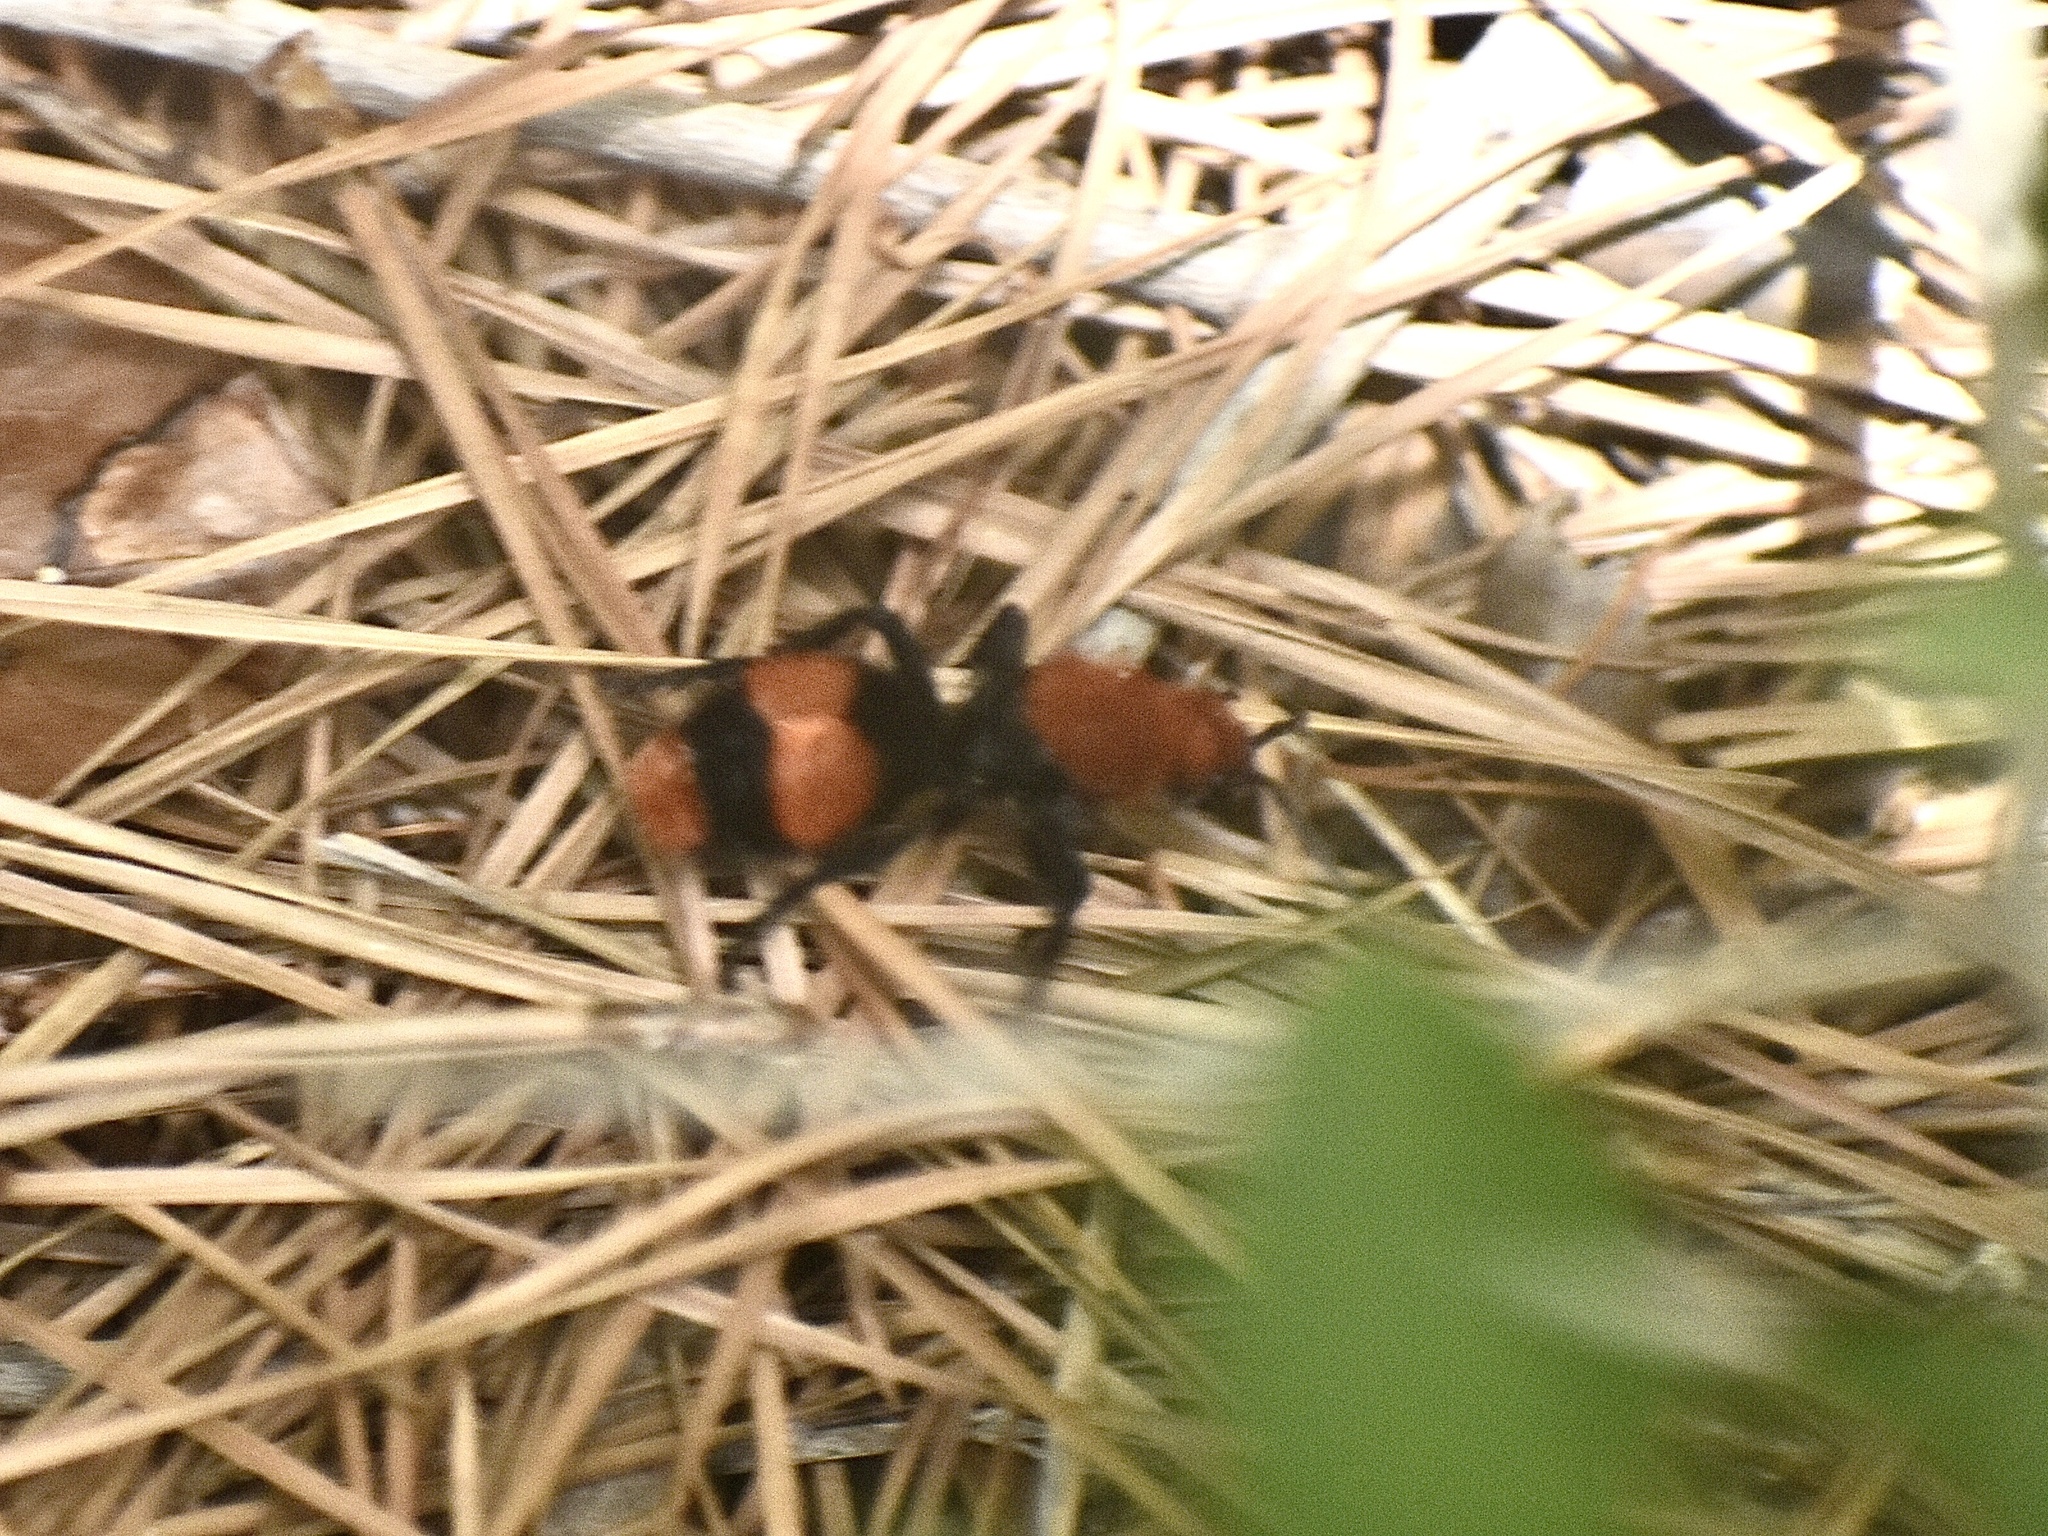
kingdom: Animalia
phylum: Arthropoda
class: Insecta
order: Hymenoptera
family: Mutillidae
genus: Dasymutilla
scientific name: Dasymutilla occidentalis
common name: Common eastern velvet ant
